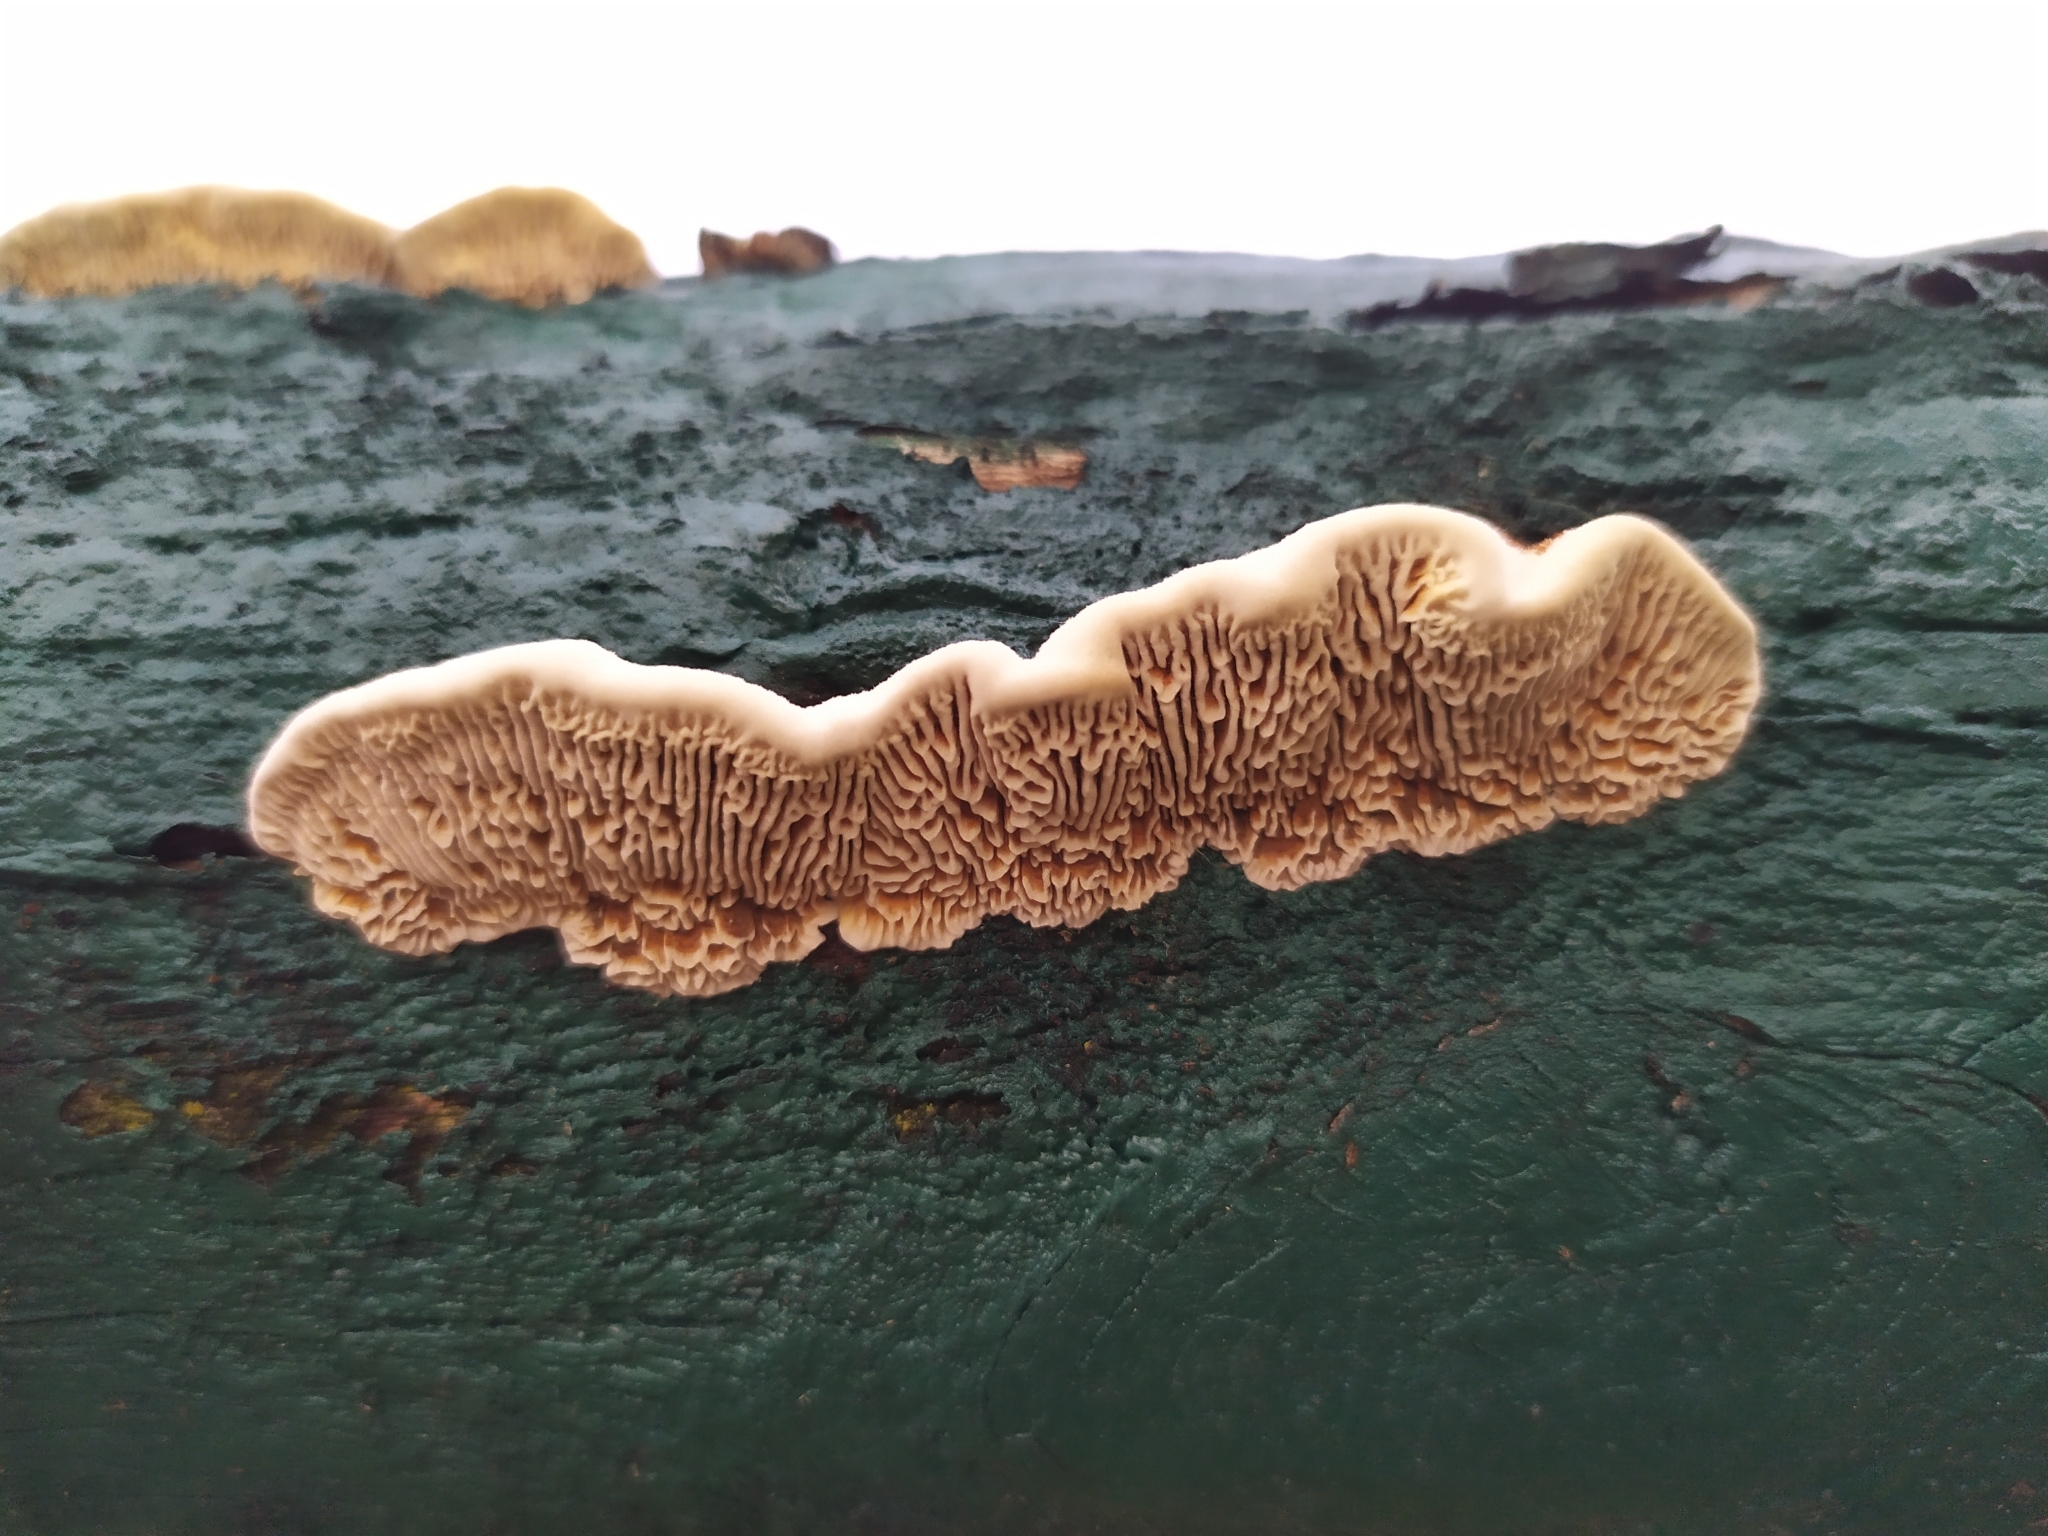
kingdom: Fungi
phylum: Basidiomycota
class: Agaricomycetes
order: Gloeophyllales
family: Gloeophyllaceae
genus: Gloeophyllum
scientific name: Gloeophyllum sepiarium
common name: Conifer mazegill
